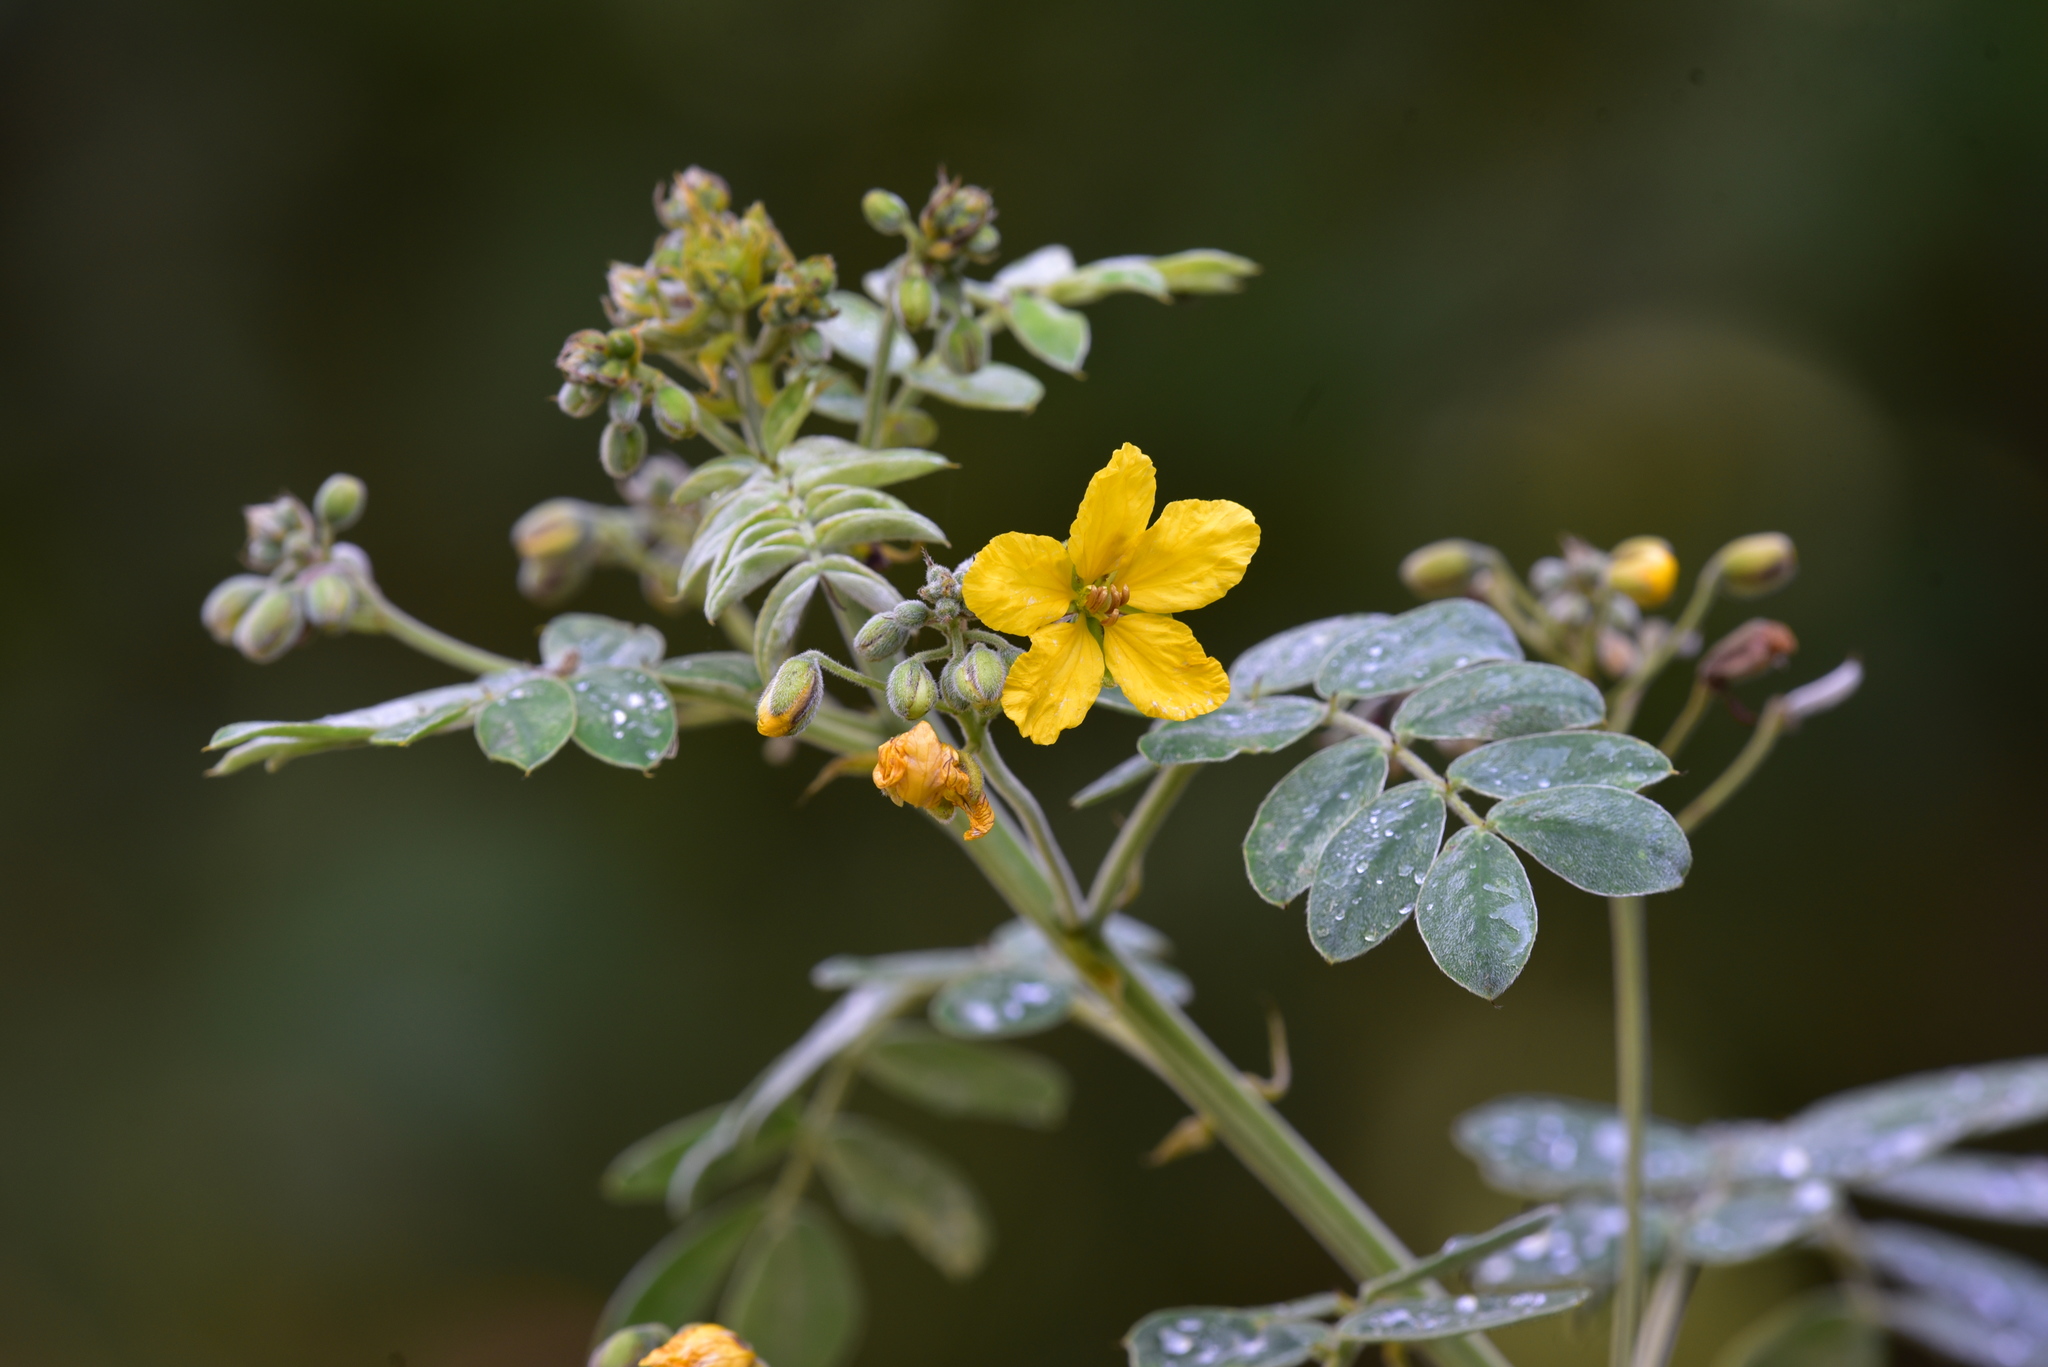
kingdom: Plantae
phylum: Tracheophyta
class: Magnoliopsida
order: Fabales
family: Fabaceae
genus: Senna
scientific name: Senna lindheimeriana
